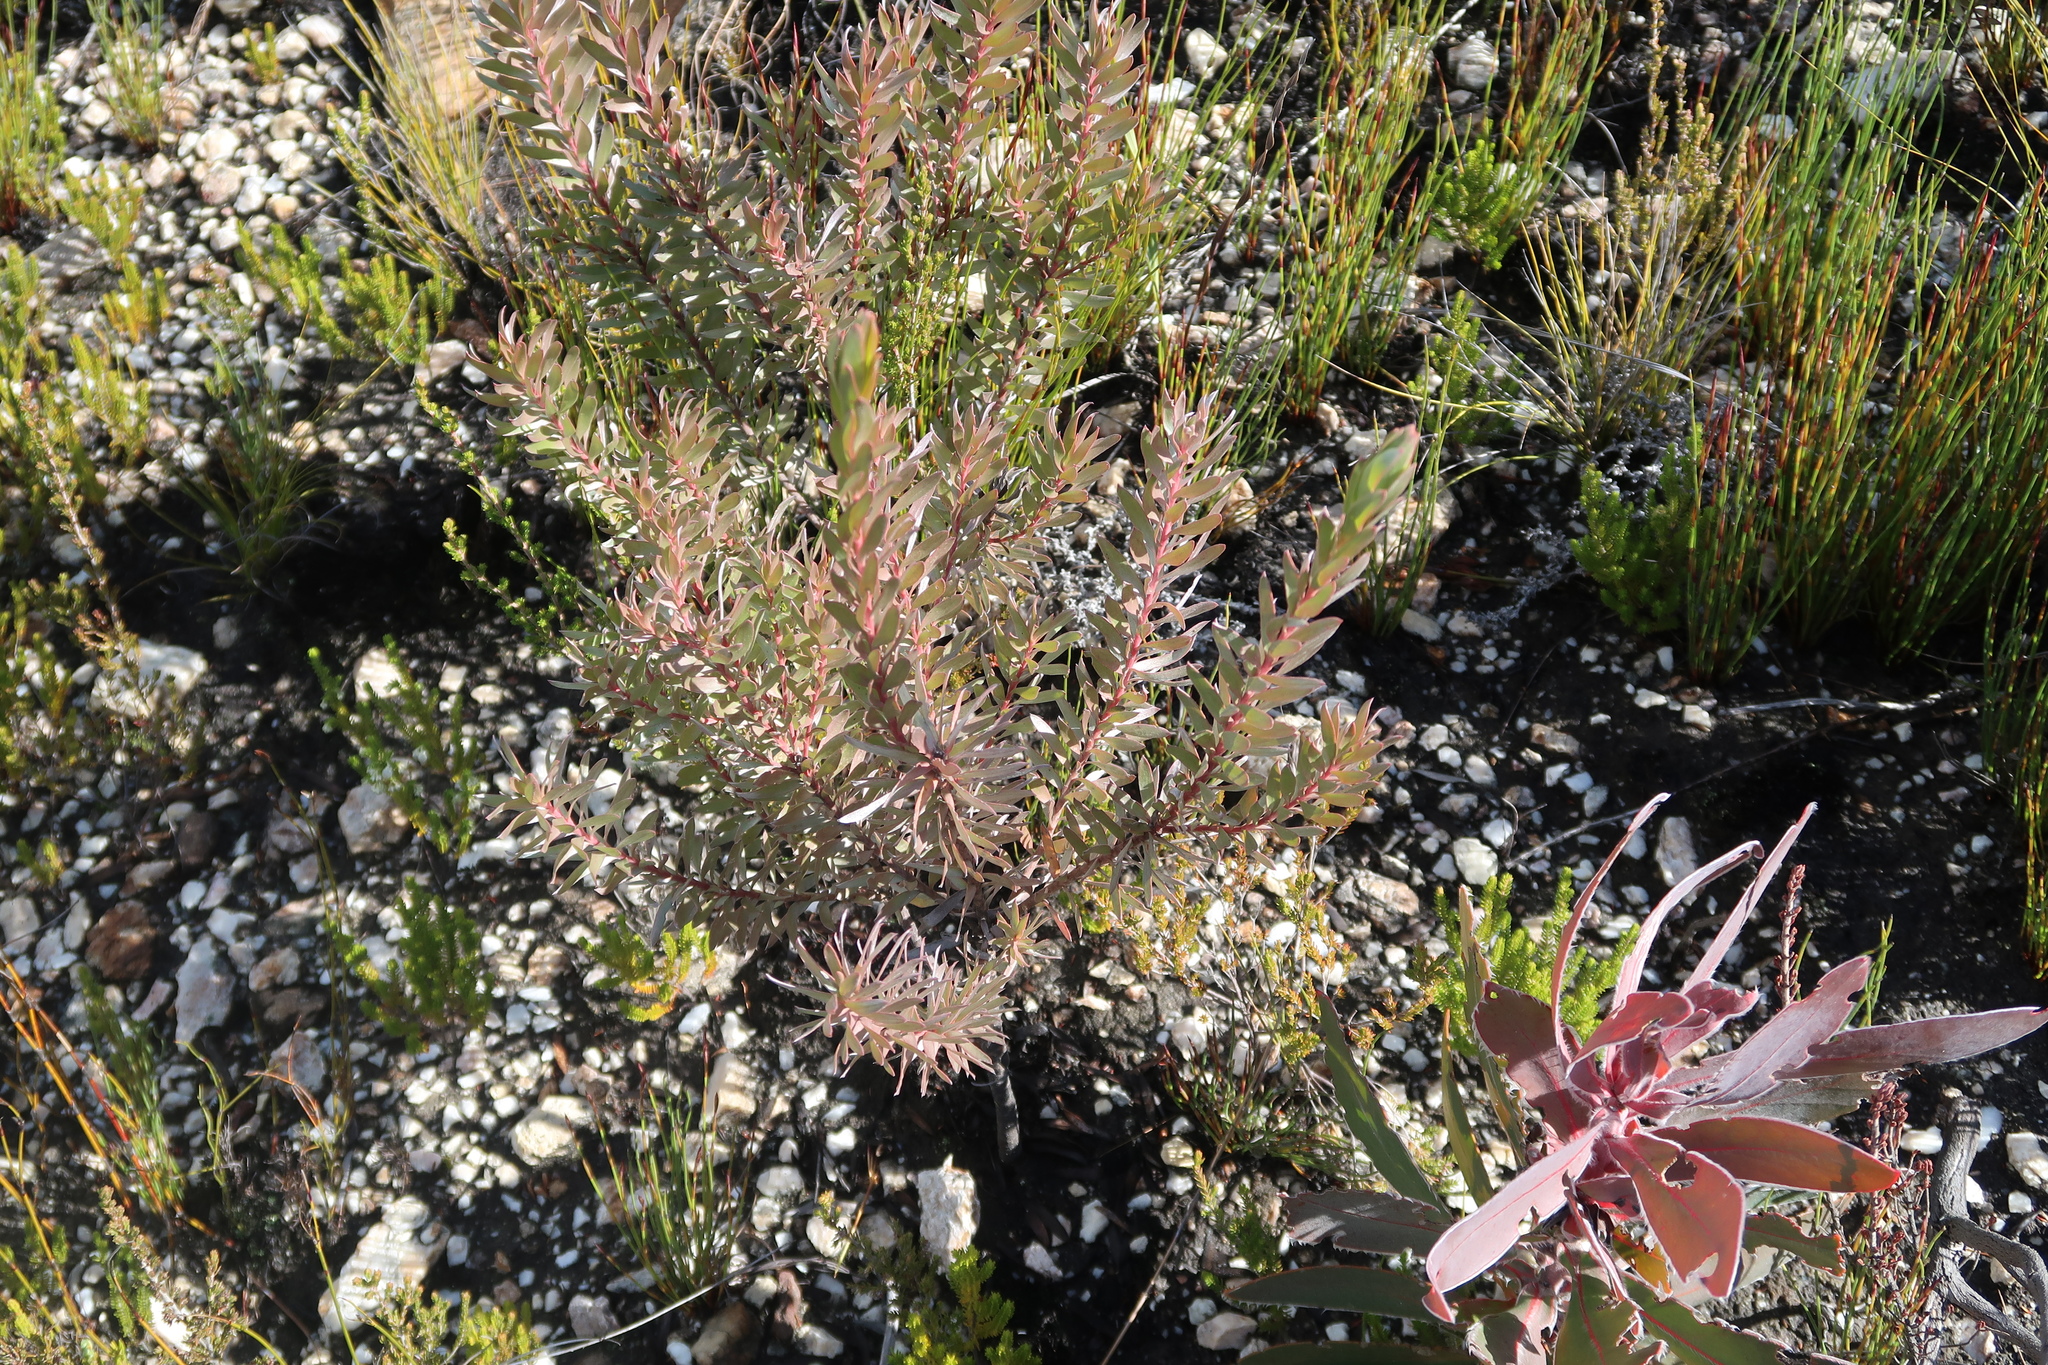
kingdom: Plantae
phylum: Tracheophyta
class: Magnoliopsida
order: Proteales
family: Proteaceae
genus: Leucadendron
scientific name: Leucadendron uliginosum
